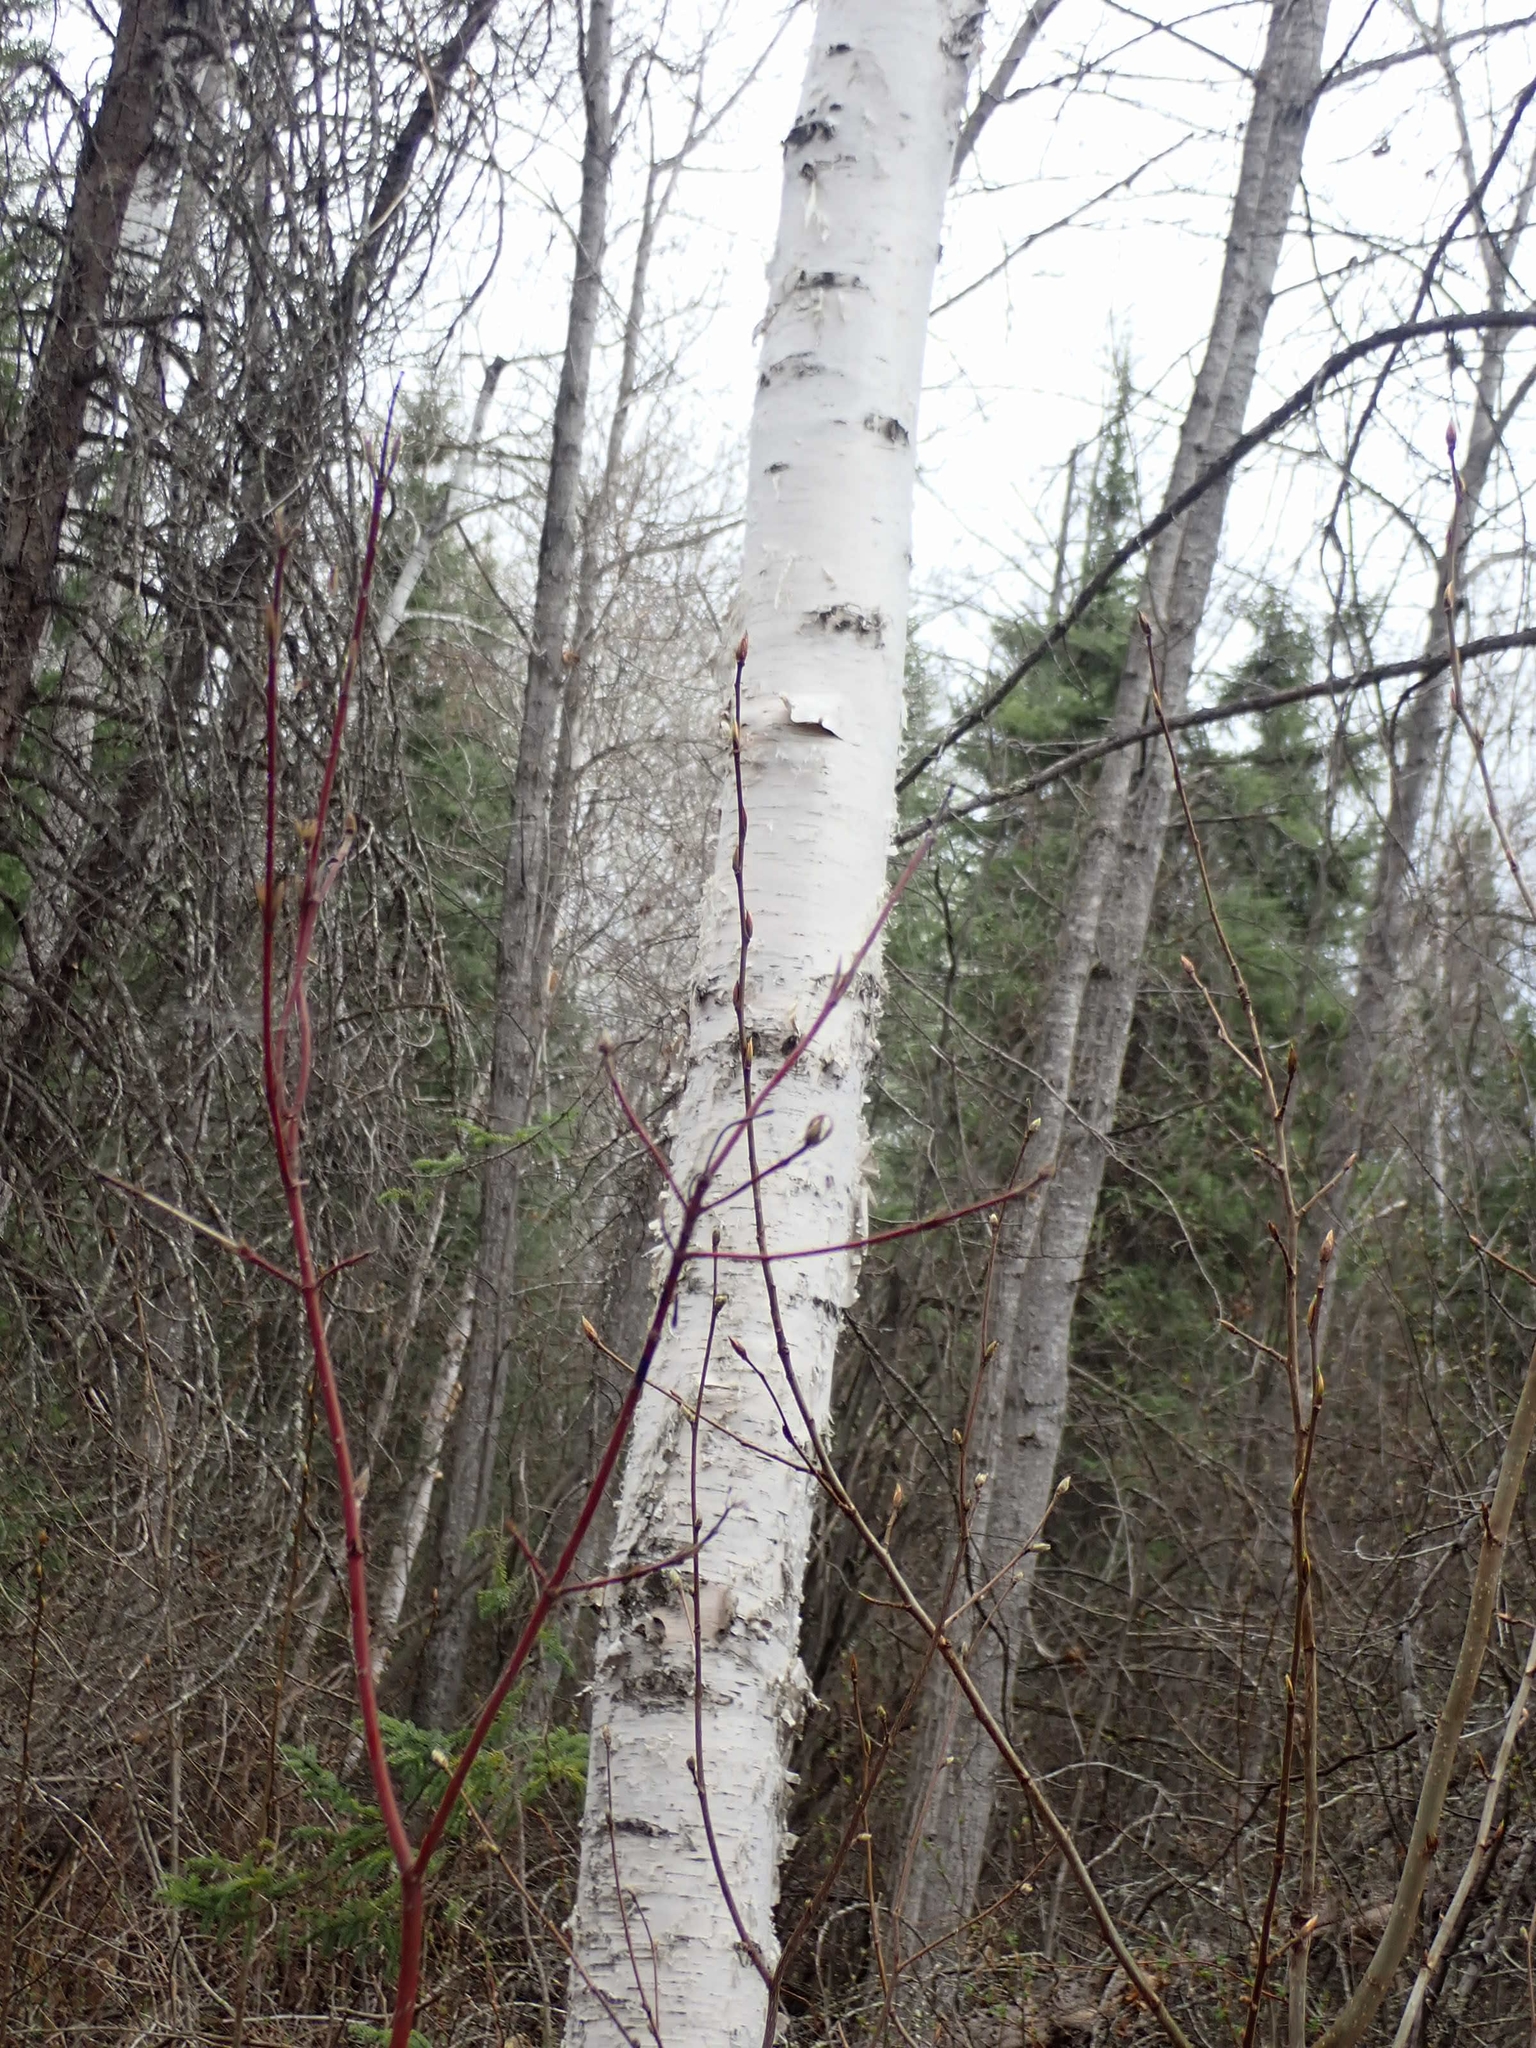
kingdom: Plantae
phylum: Tracheophyta
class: Magnoliopsida
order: Fagales
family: Betulaceae
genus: Betula
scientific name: Betula papyrifera
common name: Paper birch
